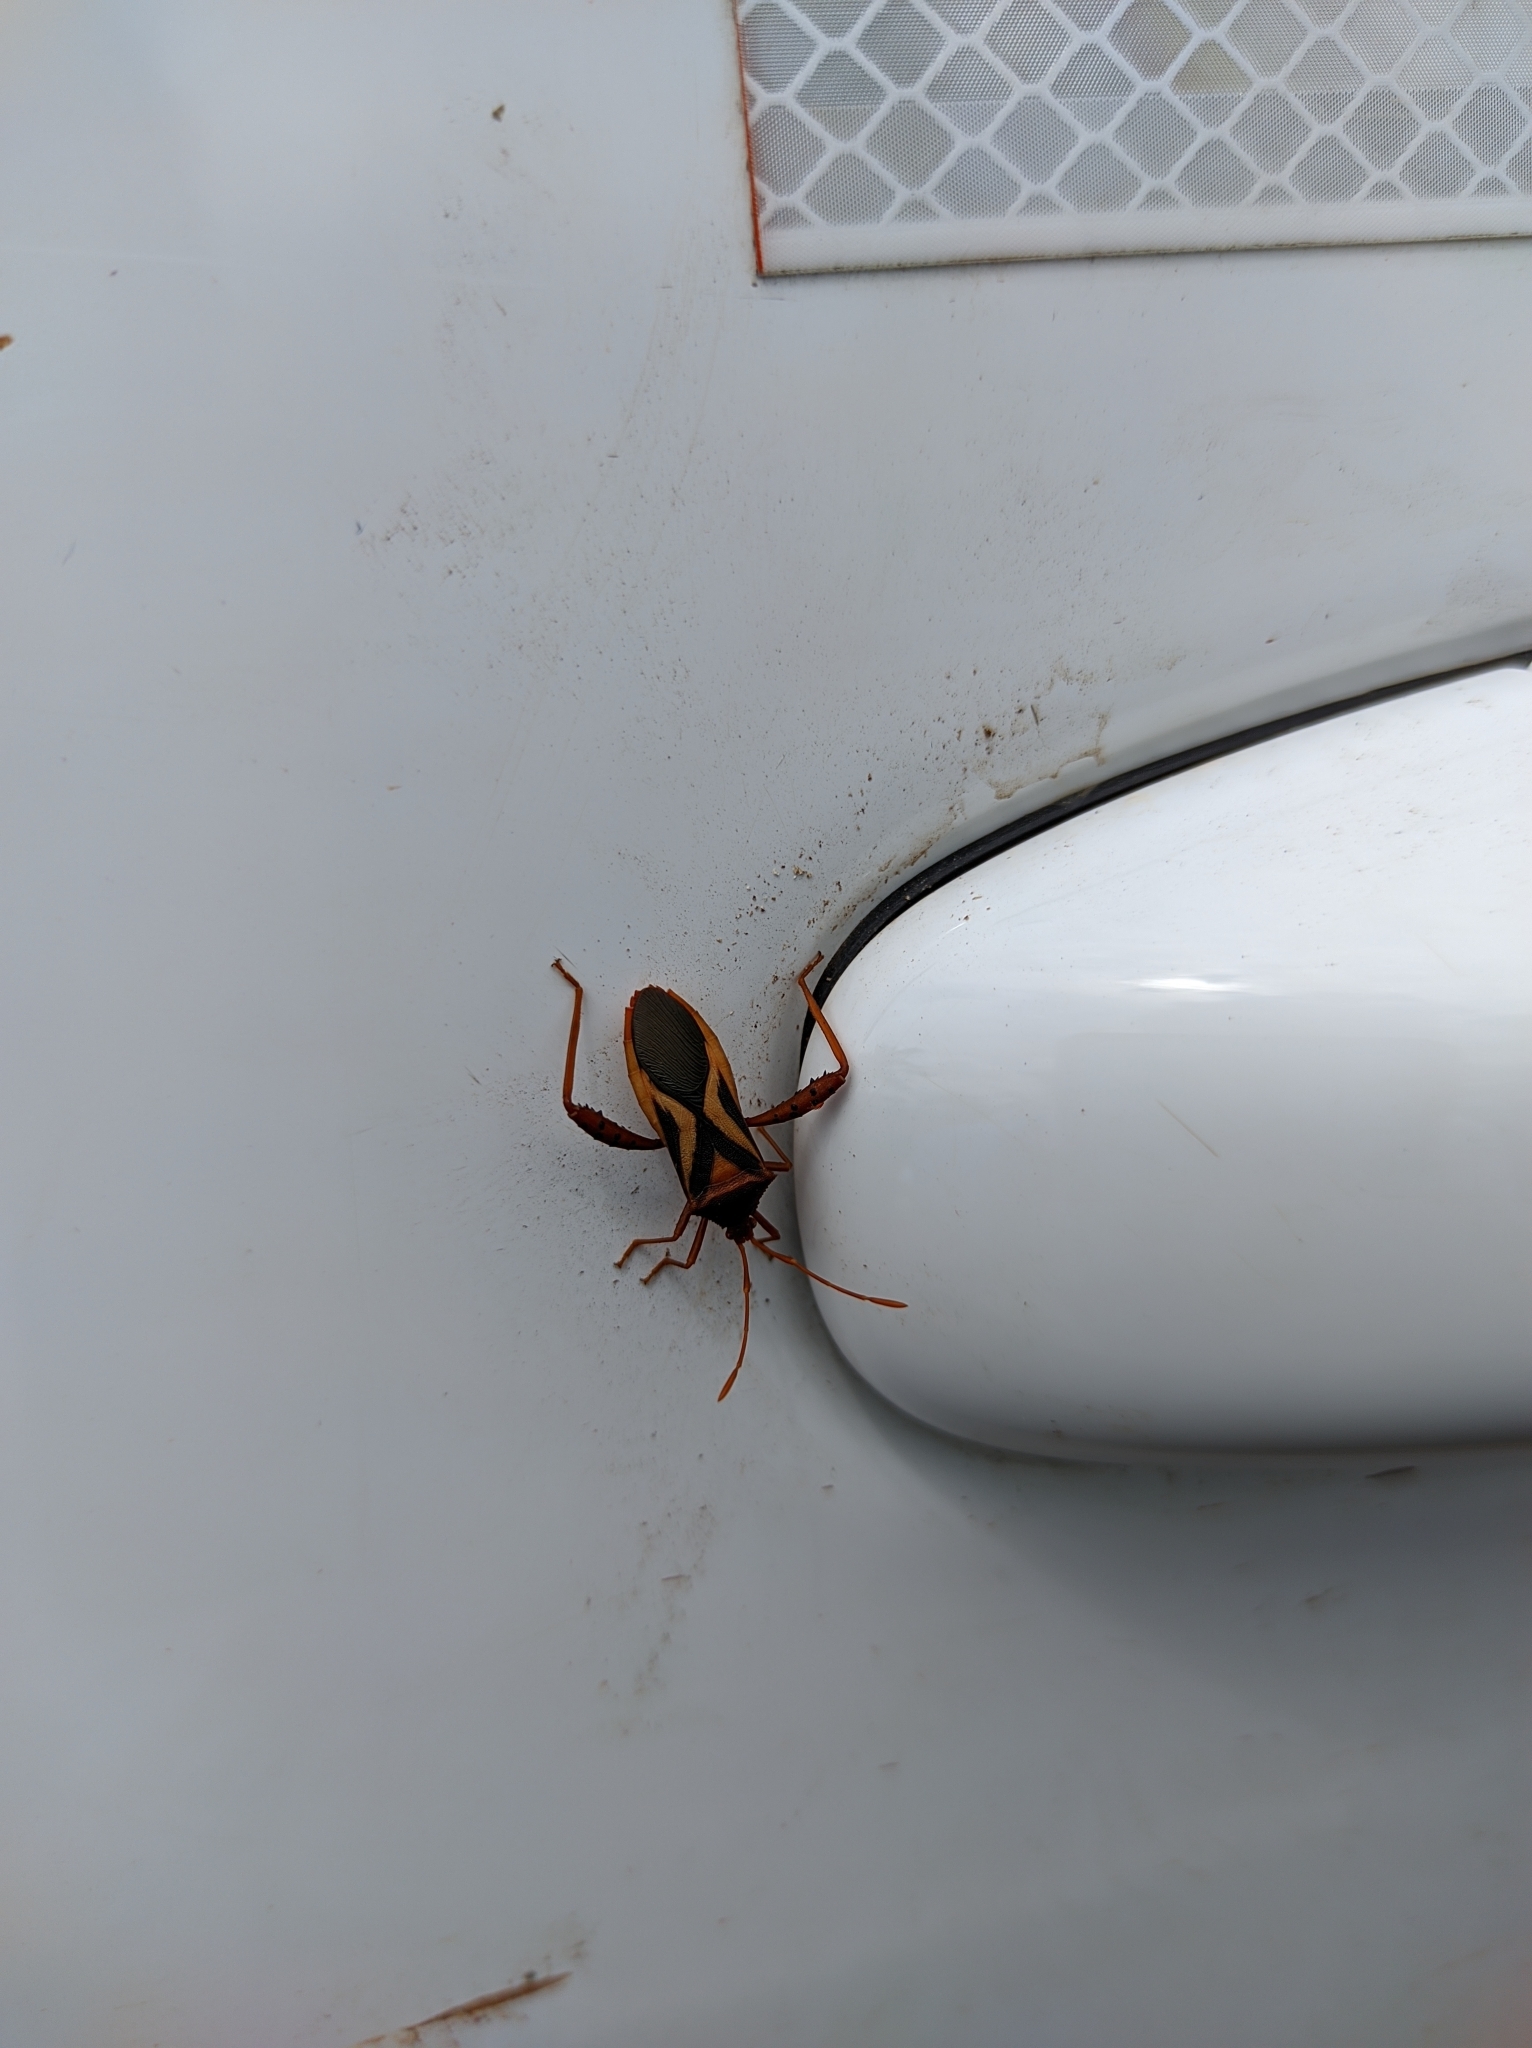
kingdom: Animalia
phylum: Arthropoda
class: Insecta
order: Hemiptera
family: Coreidae
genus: Crinocerus
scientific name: Crinocerus sanctus
